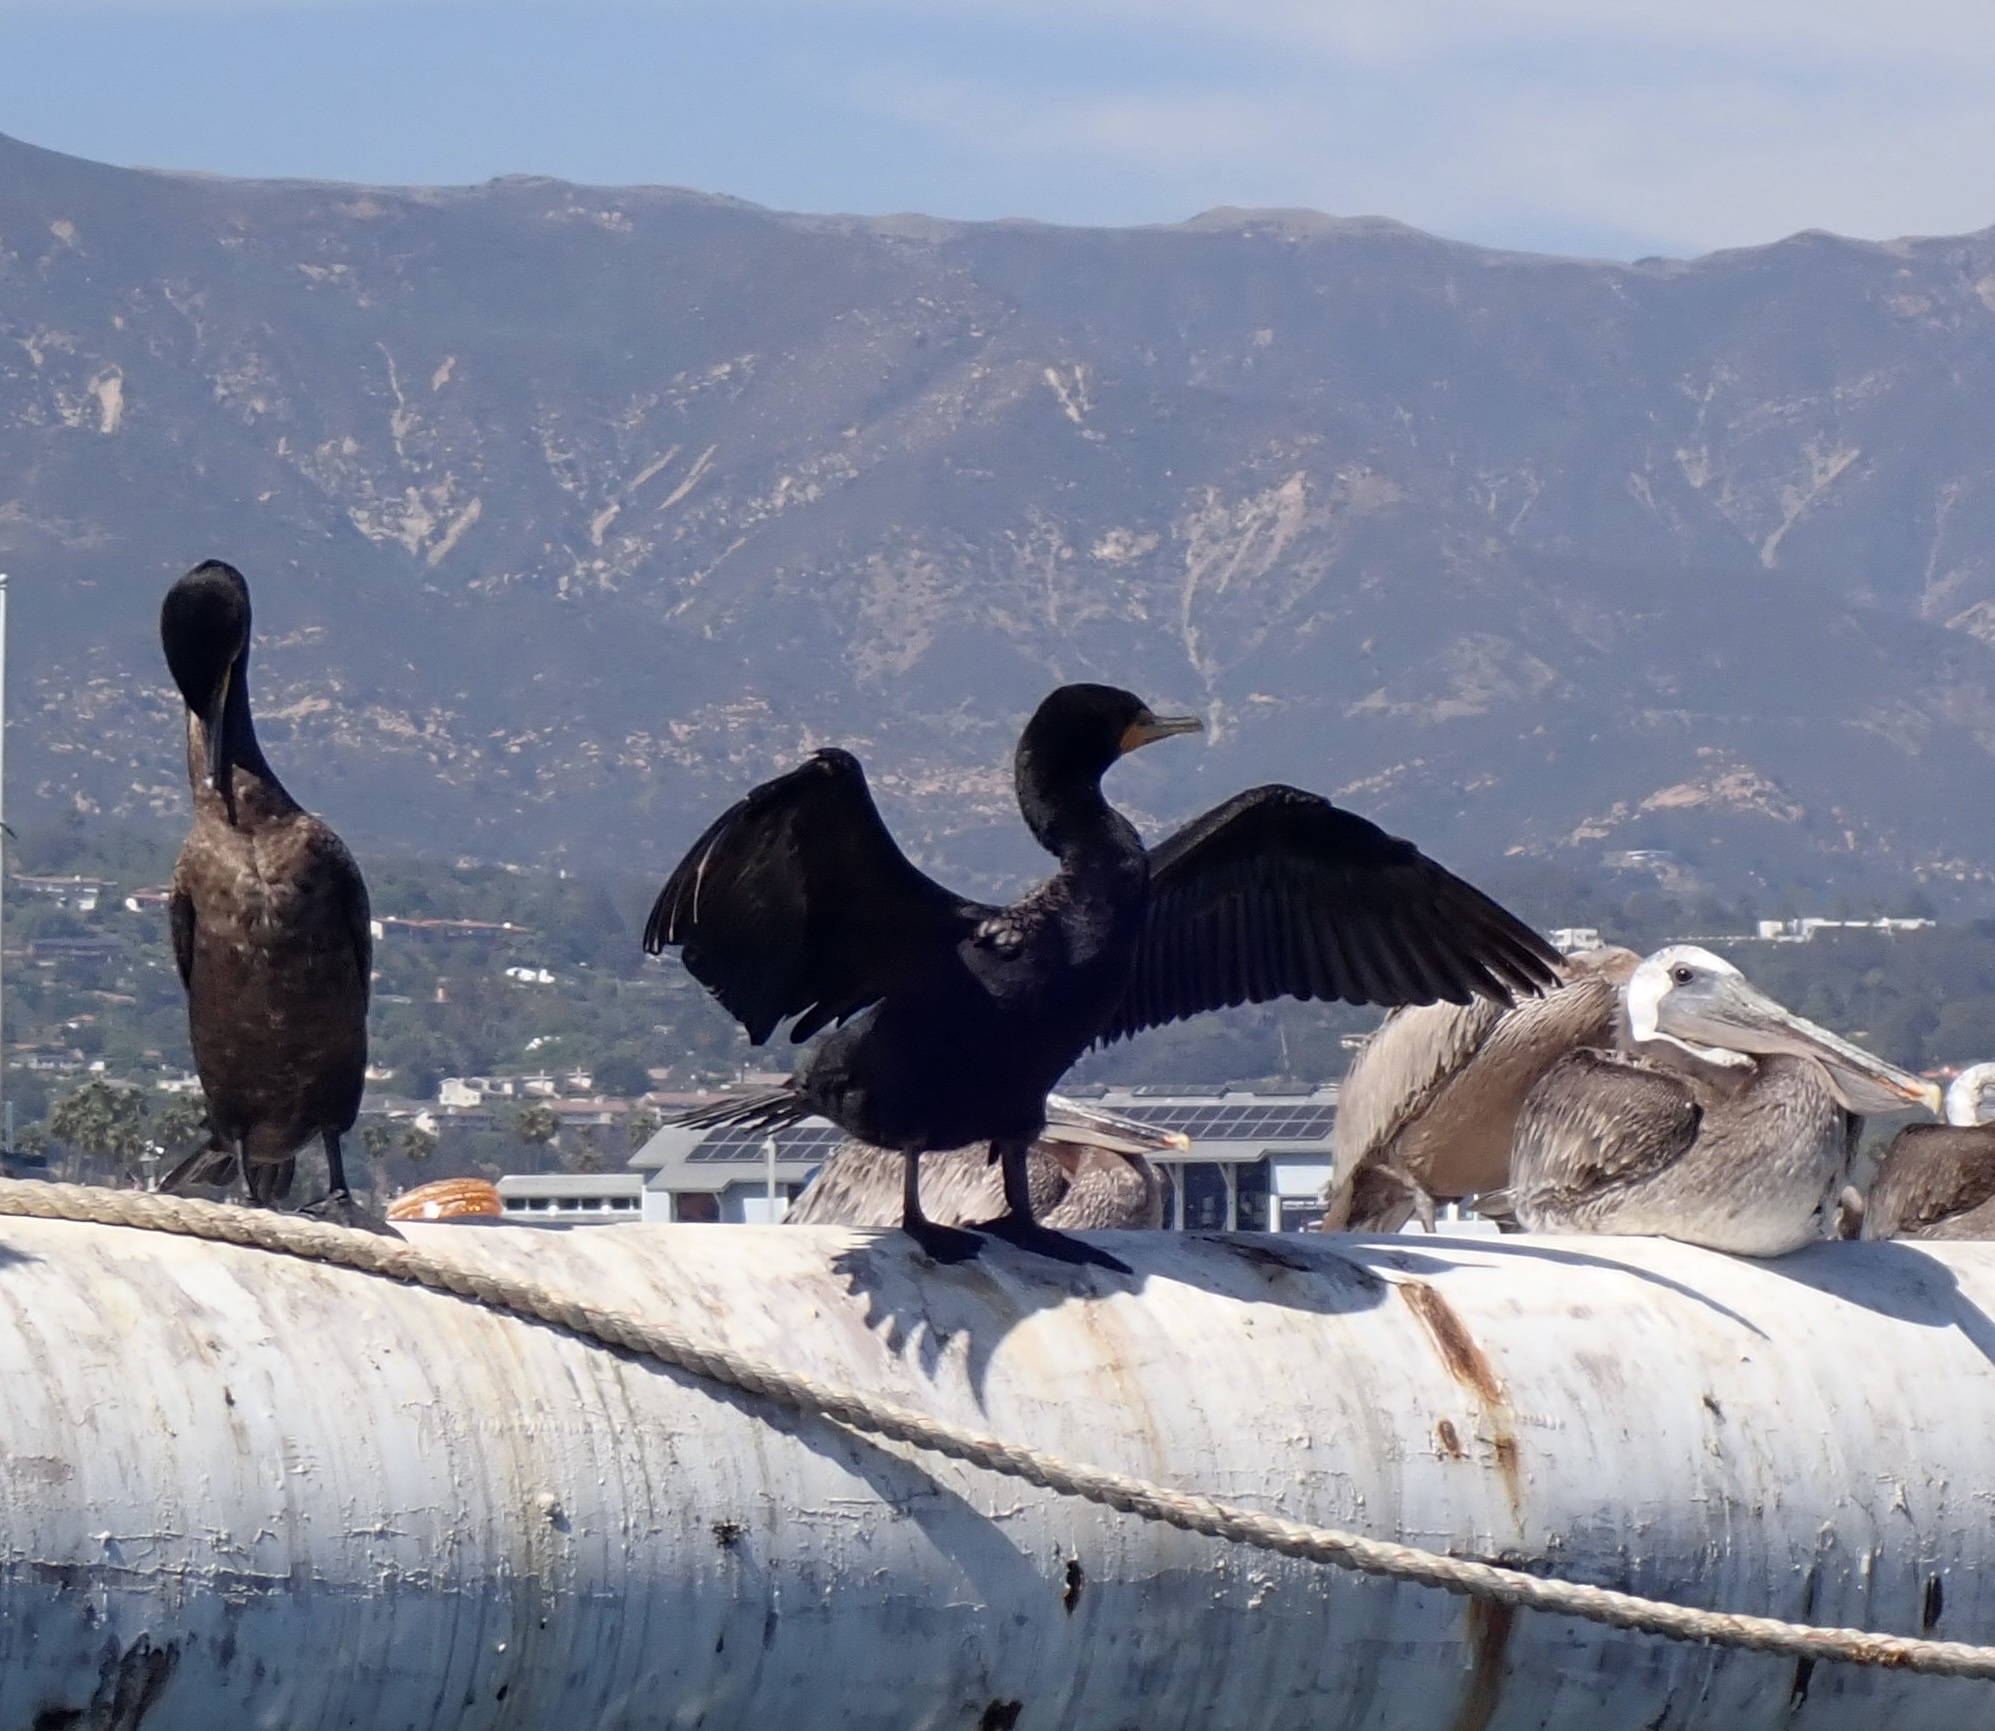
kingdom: Animalia
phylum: Chordata
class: Aves
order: Suliformes
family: Phalacrocoracidae
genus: Phalacrocorax
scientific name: Phalacrocorax auritus
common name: Double-crested cormorant
